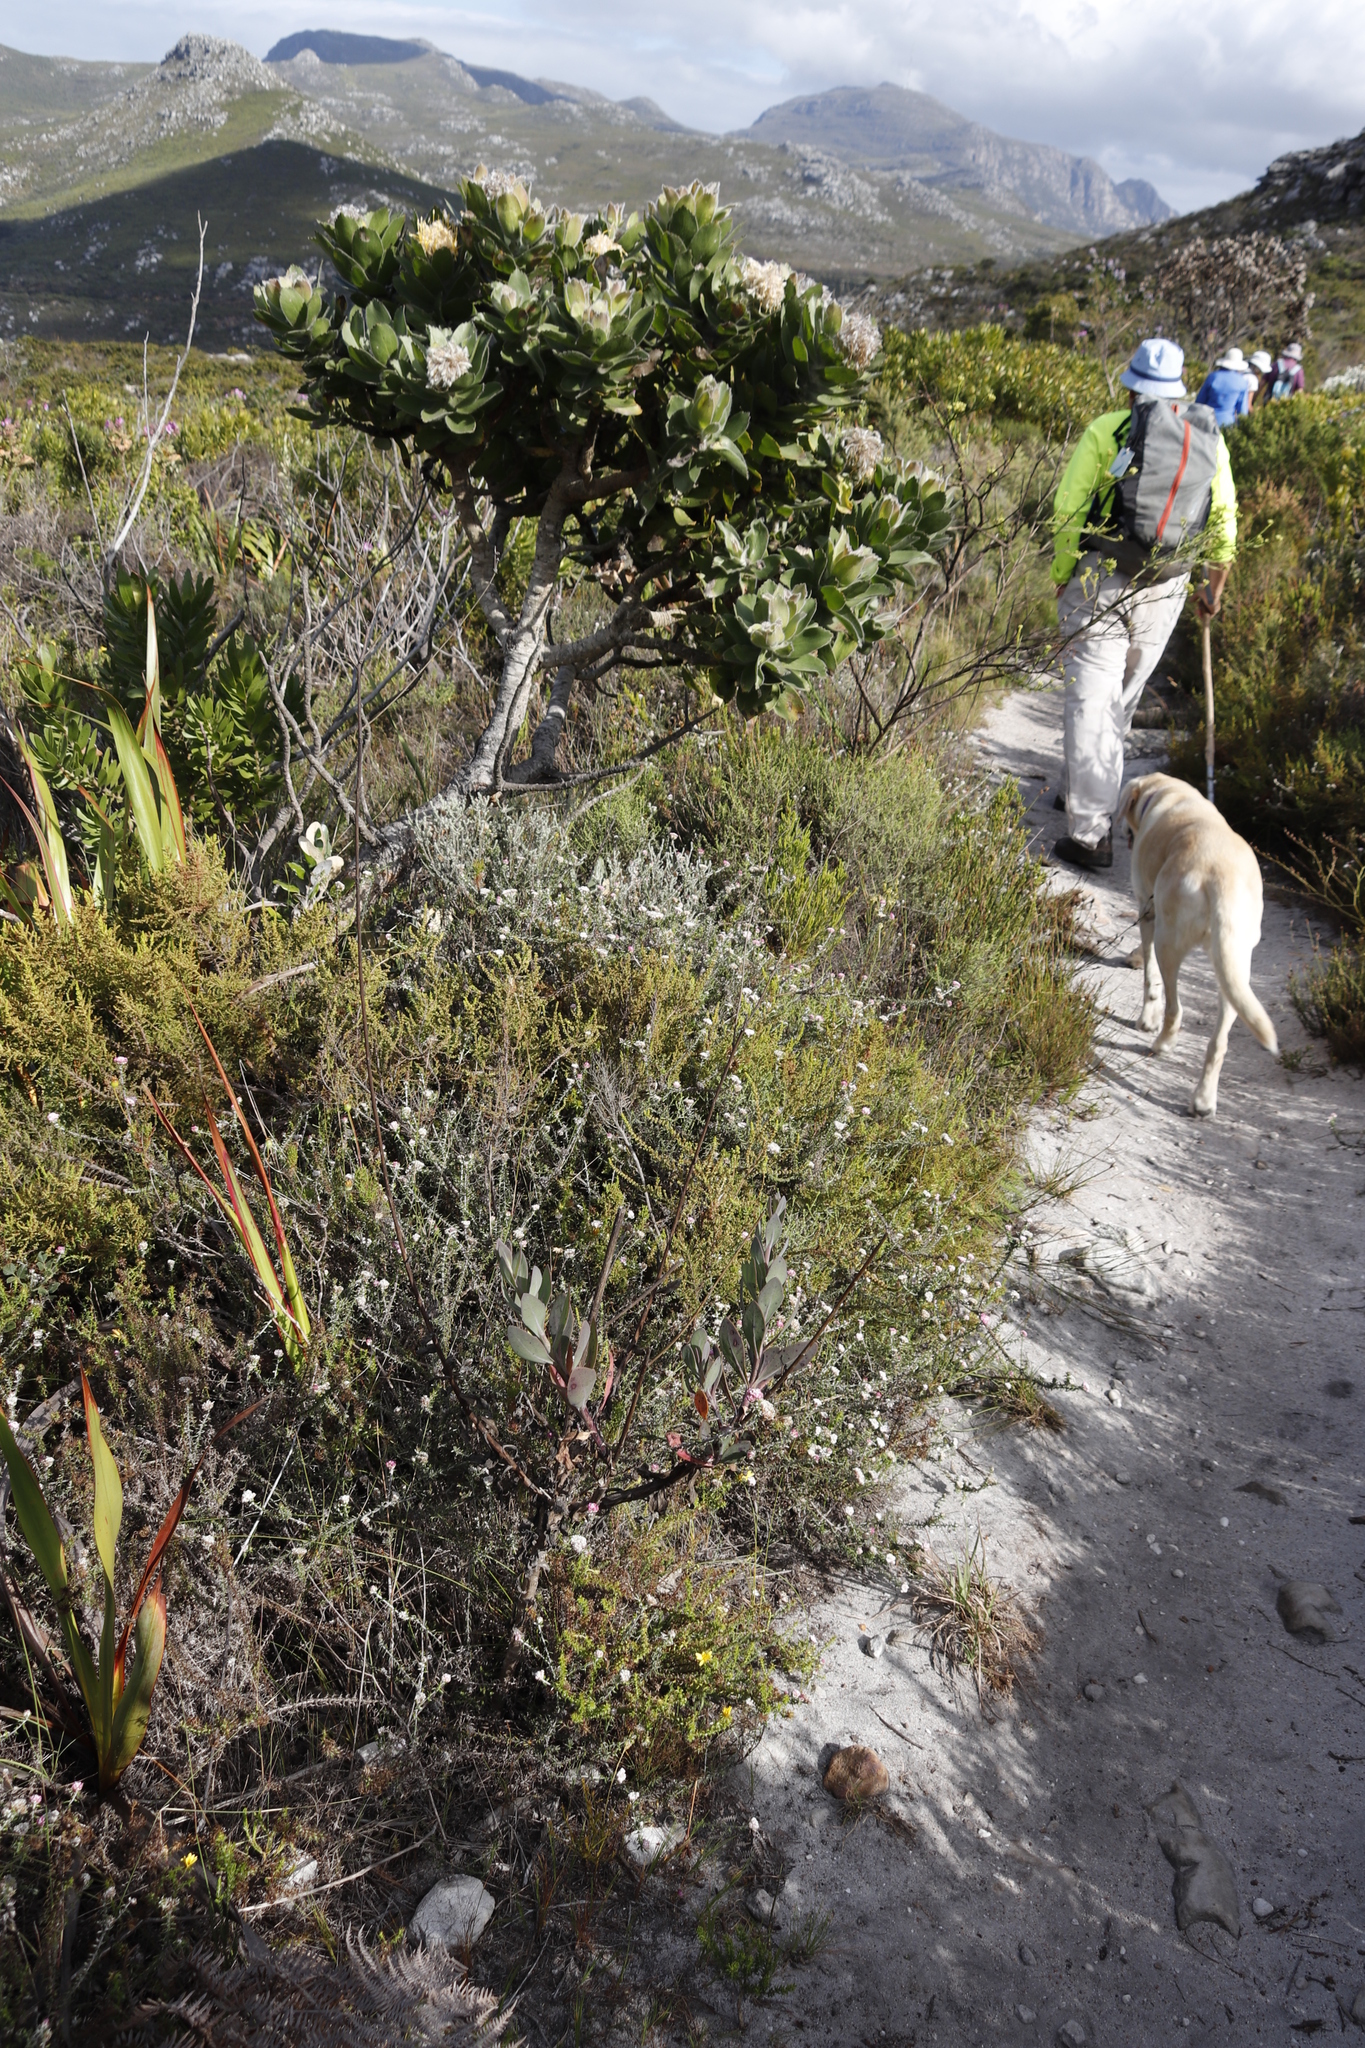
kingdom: Plantae
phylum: Tracheophyta
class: Magnoliopsida
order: Proteales
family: Proteaceae
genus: Leucospermum
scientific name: Leucospermum conocarpodendron
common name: Tree pincushion
